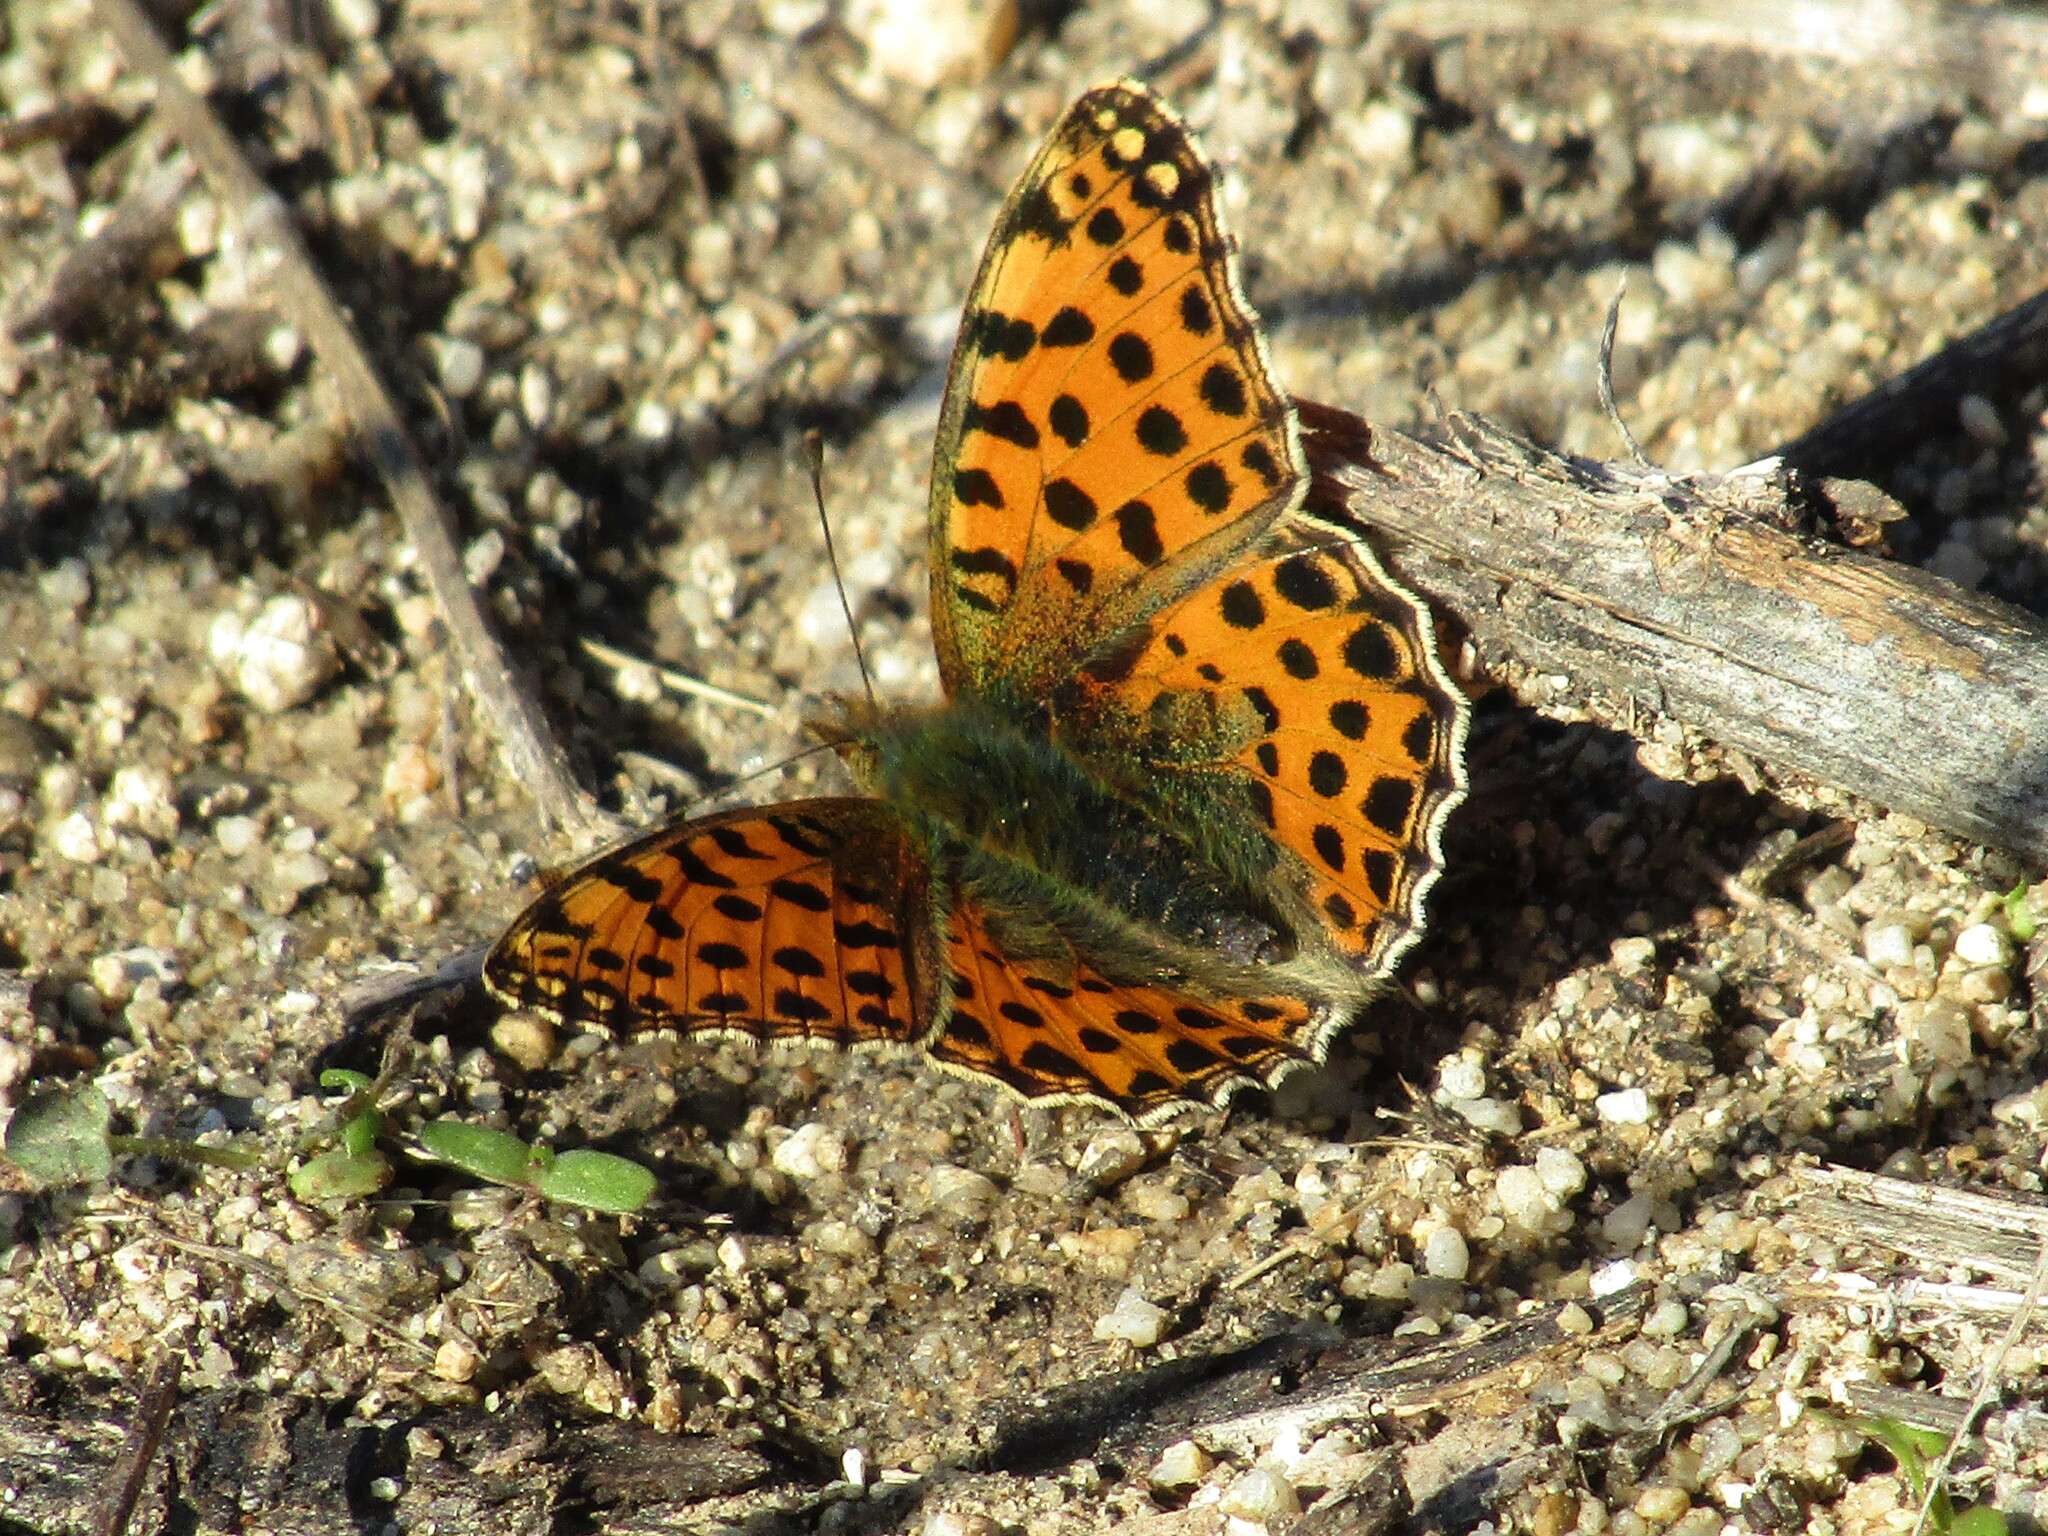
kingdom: Animalia
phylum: Arthropoda
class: Insecta
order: Lepidoptera
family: Nymphalidae
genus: Issoria
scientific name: Issoria lathonia
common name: Queen of spain fritillary
